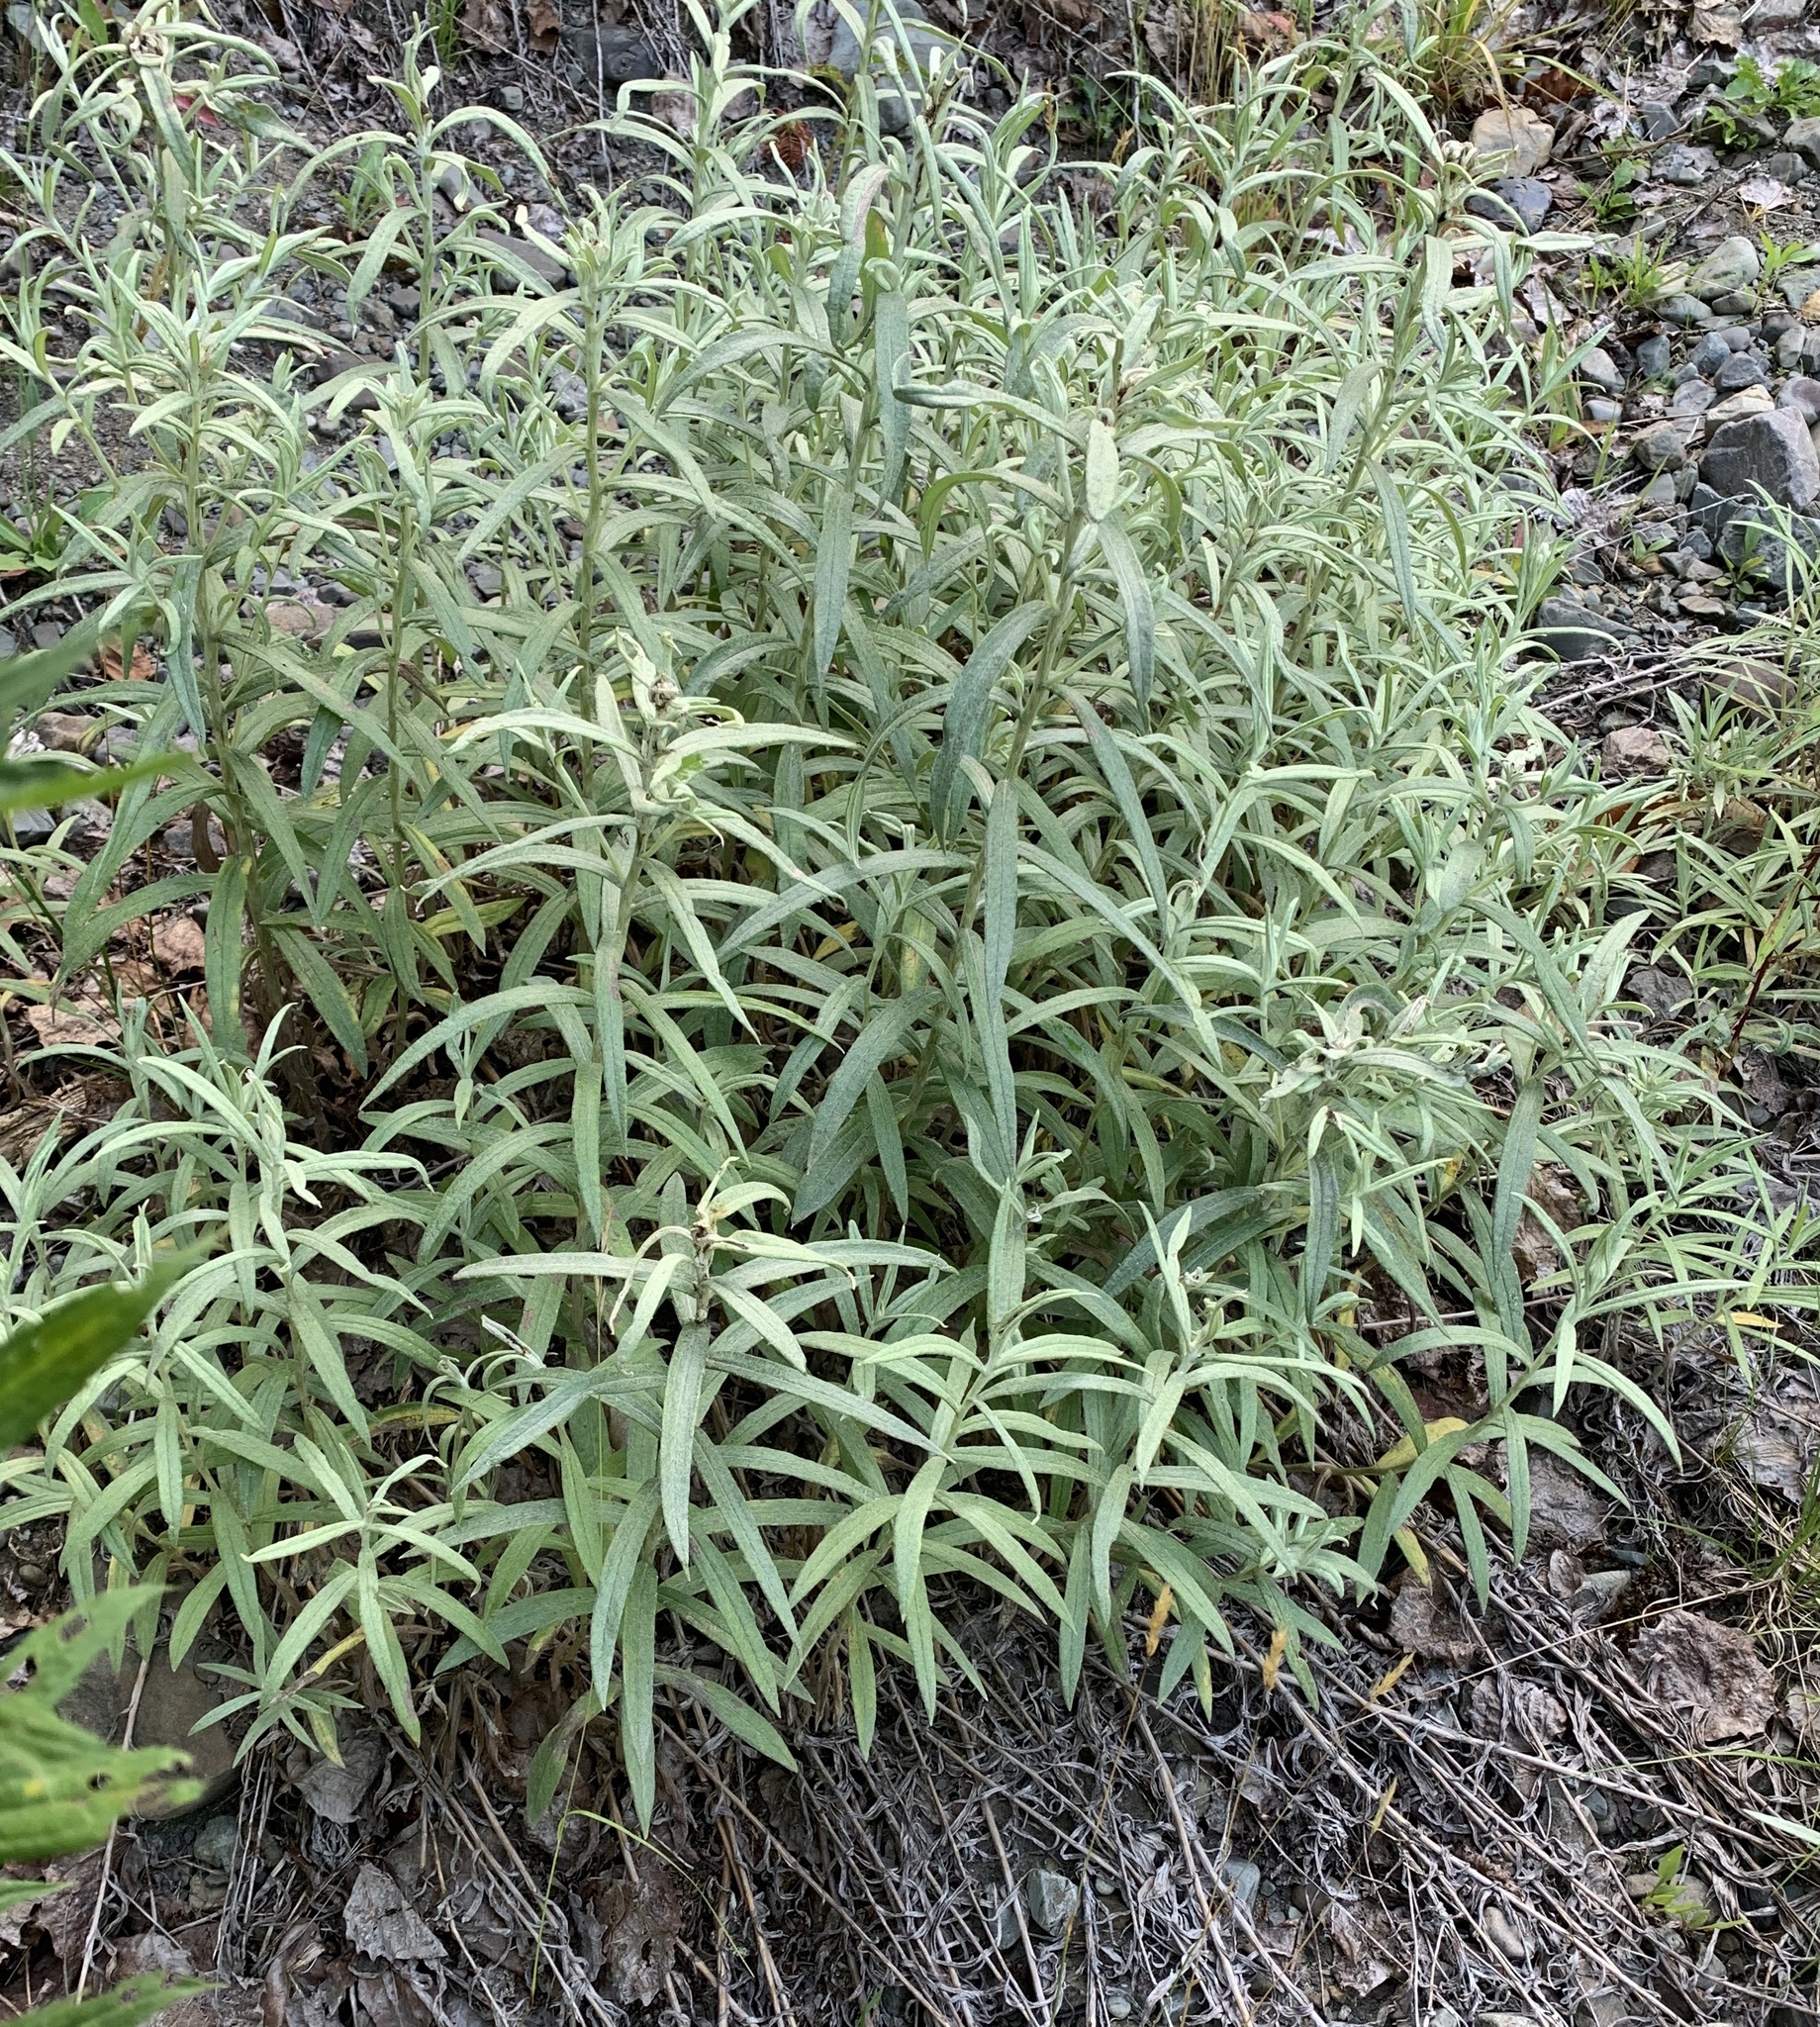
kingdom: Plantae
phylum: Tracheophyta
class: Magnoliopsida
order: Asterales
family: Asteraceae
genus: Anaphalis
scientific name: Anaphalis margaritacea
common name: Pearly everlasting
